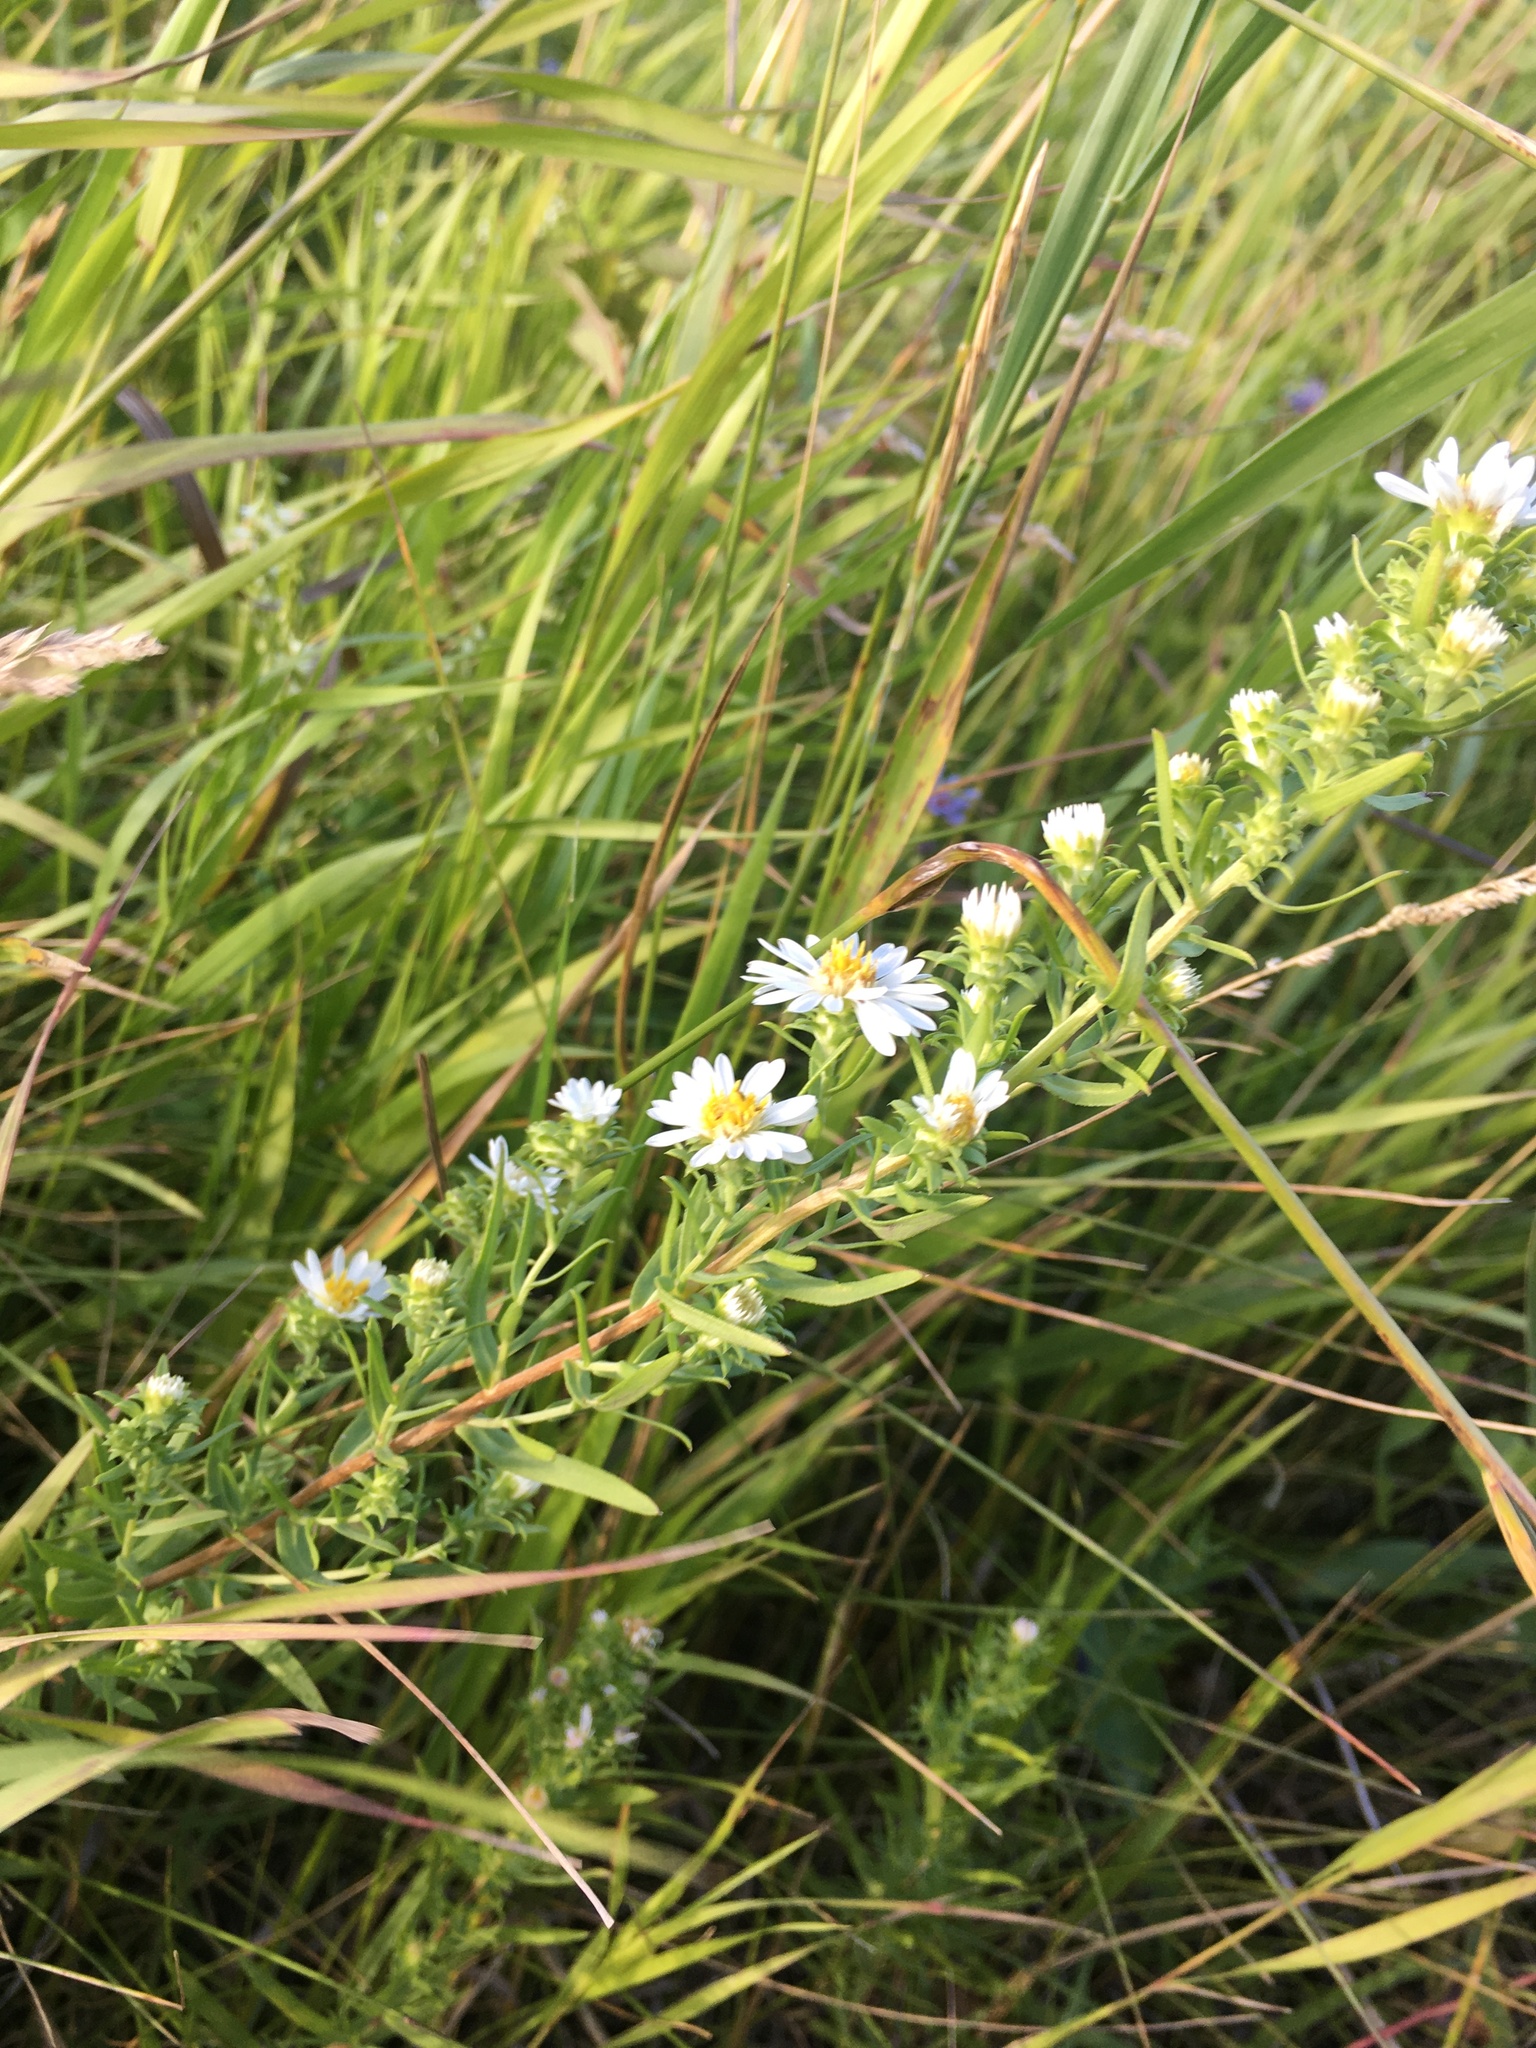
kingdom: Plantae
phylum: Tracheophyta
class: Magnoliopsida
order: Asterales
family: Asteraceae
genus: Symphyotrichum
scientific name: Symphyotrichum ericoides
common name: Heath aster
